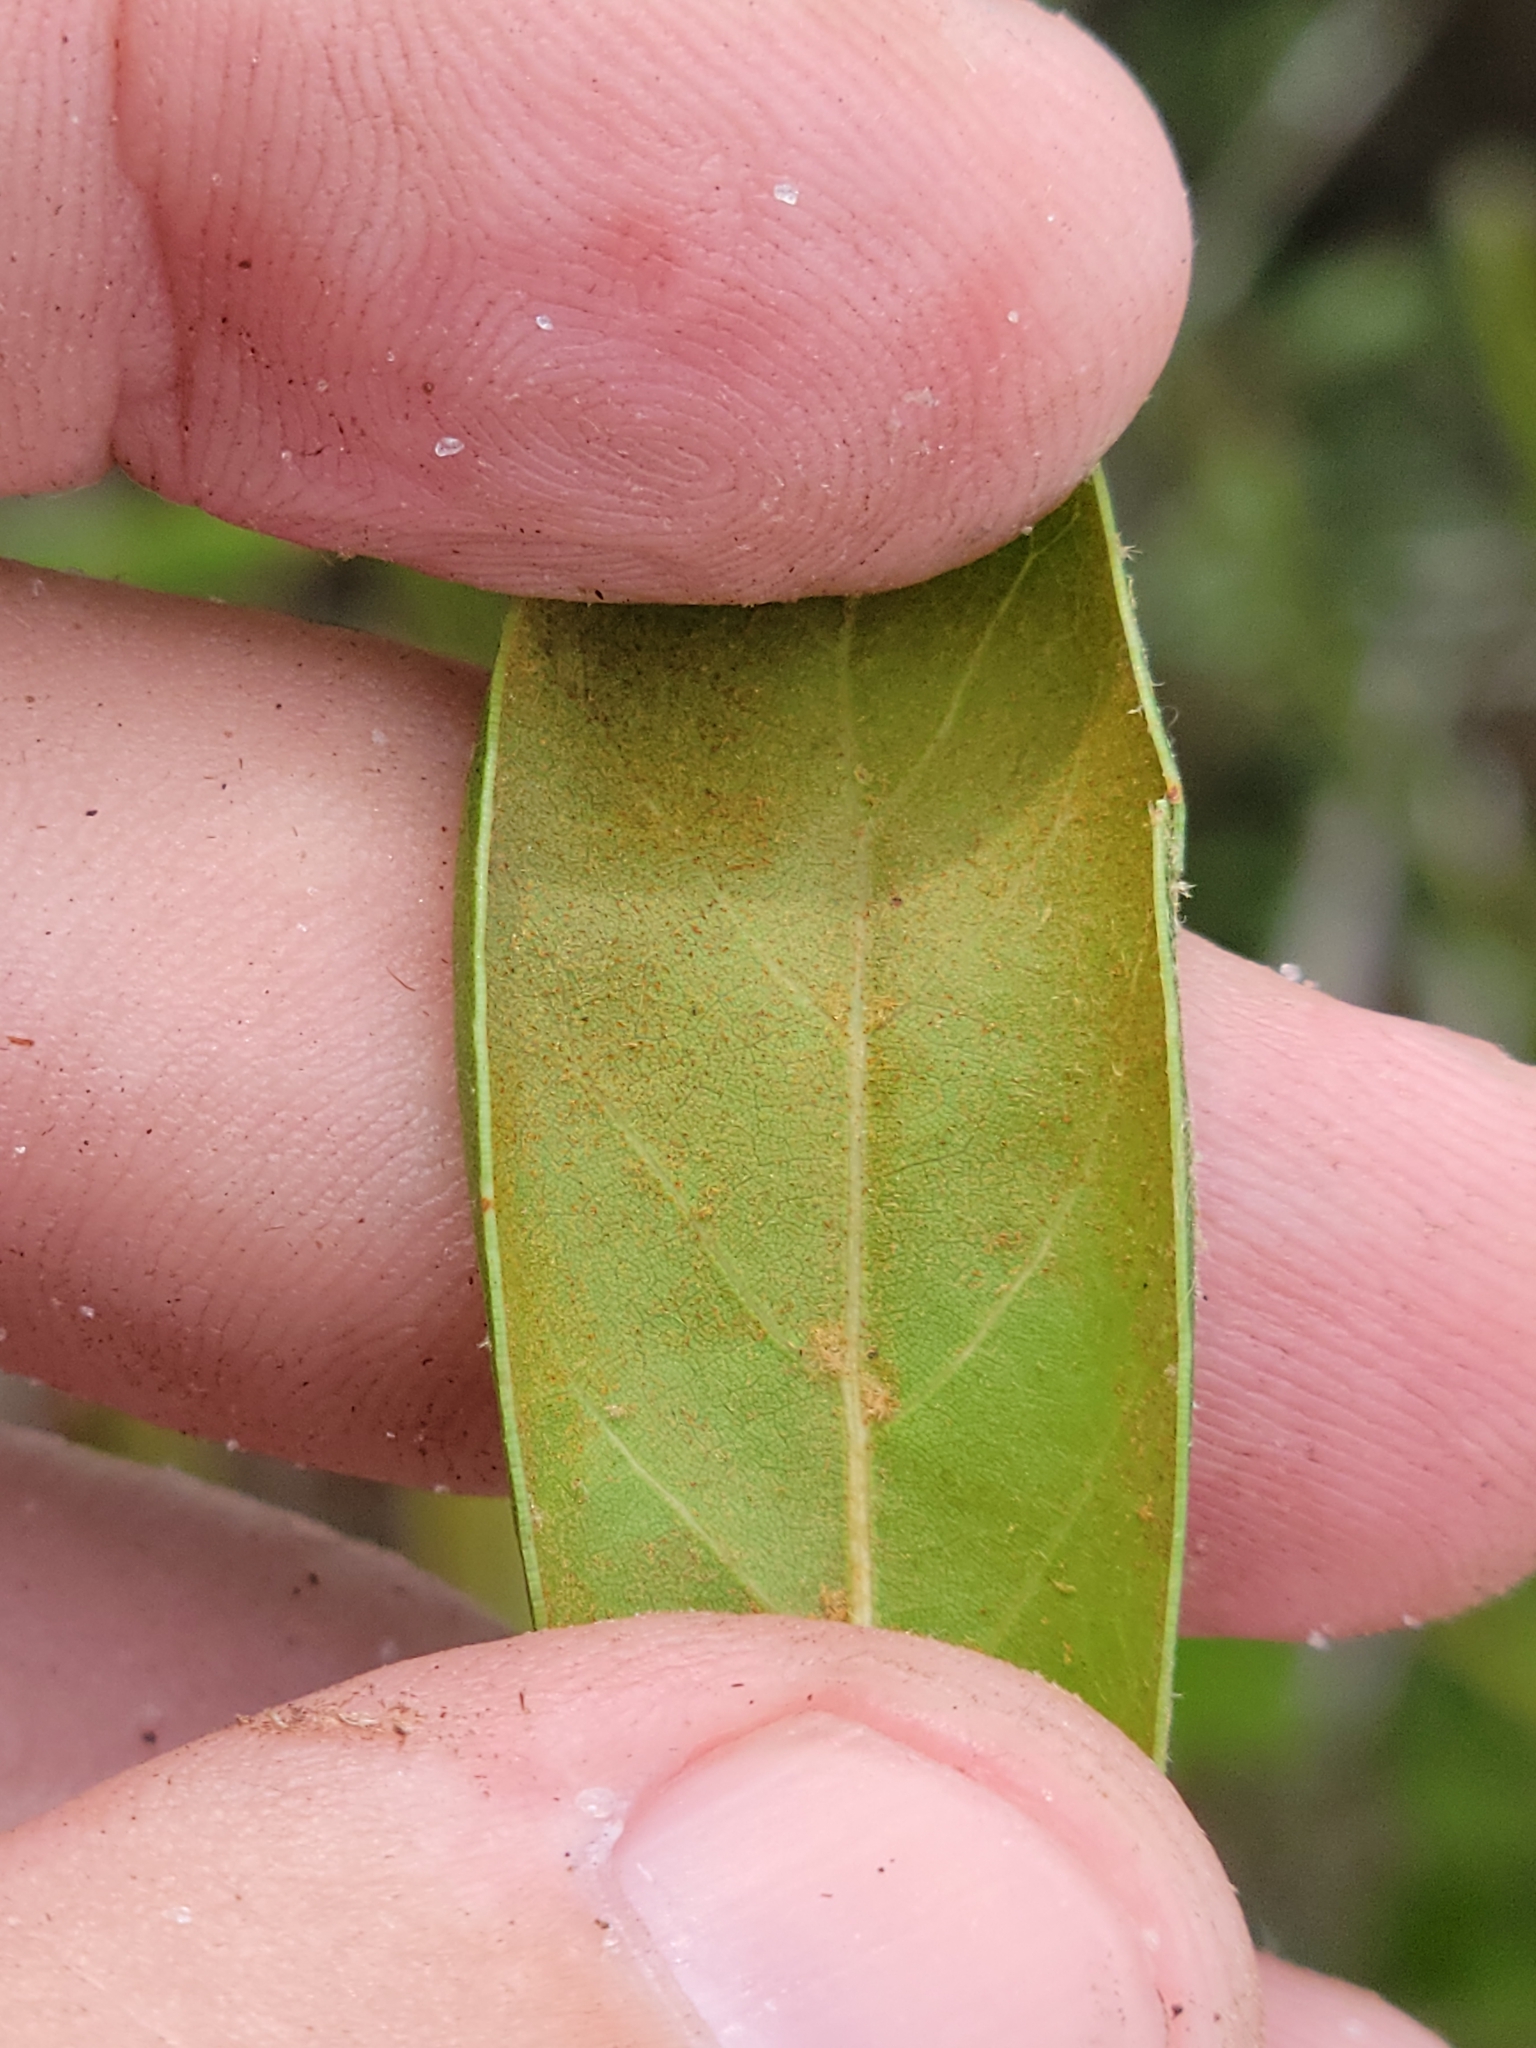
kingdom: Plantae
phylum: Tracheophyta
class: Magnoliopsida
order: Fagales
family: Fagaceae
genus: Quercus
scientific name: Quercus inopina
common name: Sandhill oak
